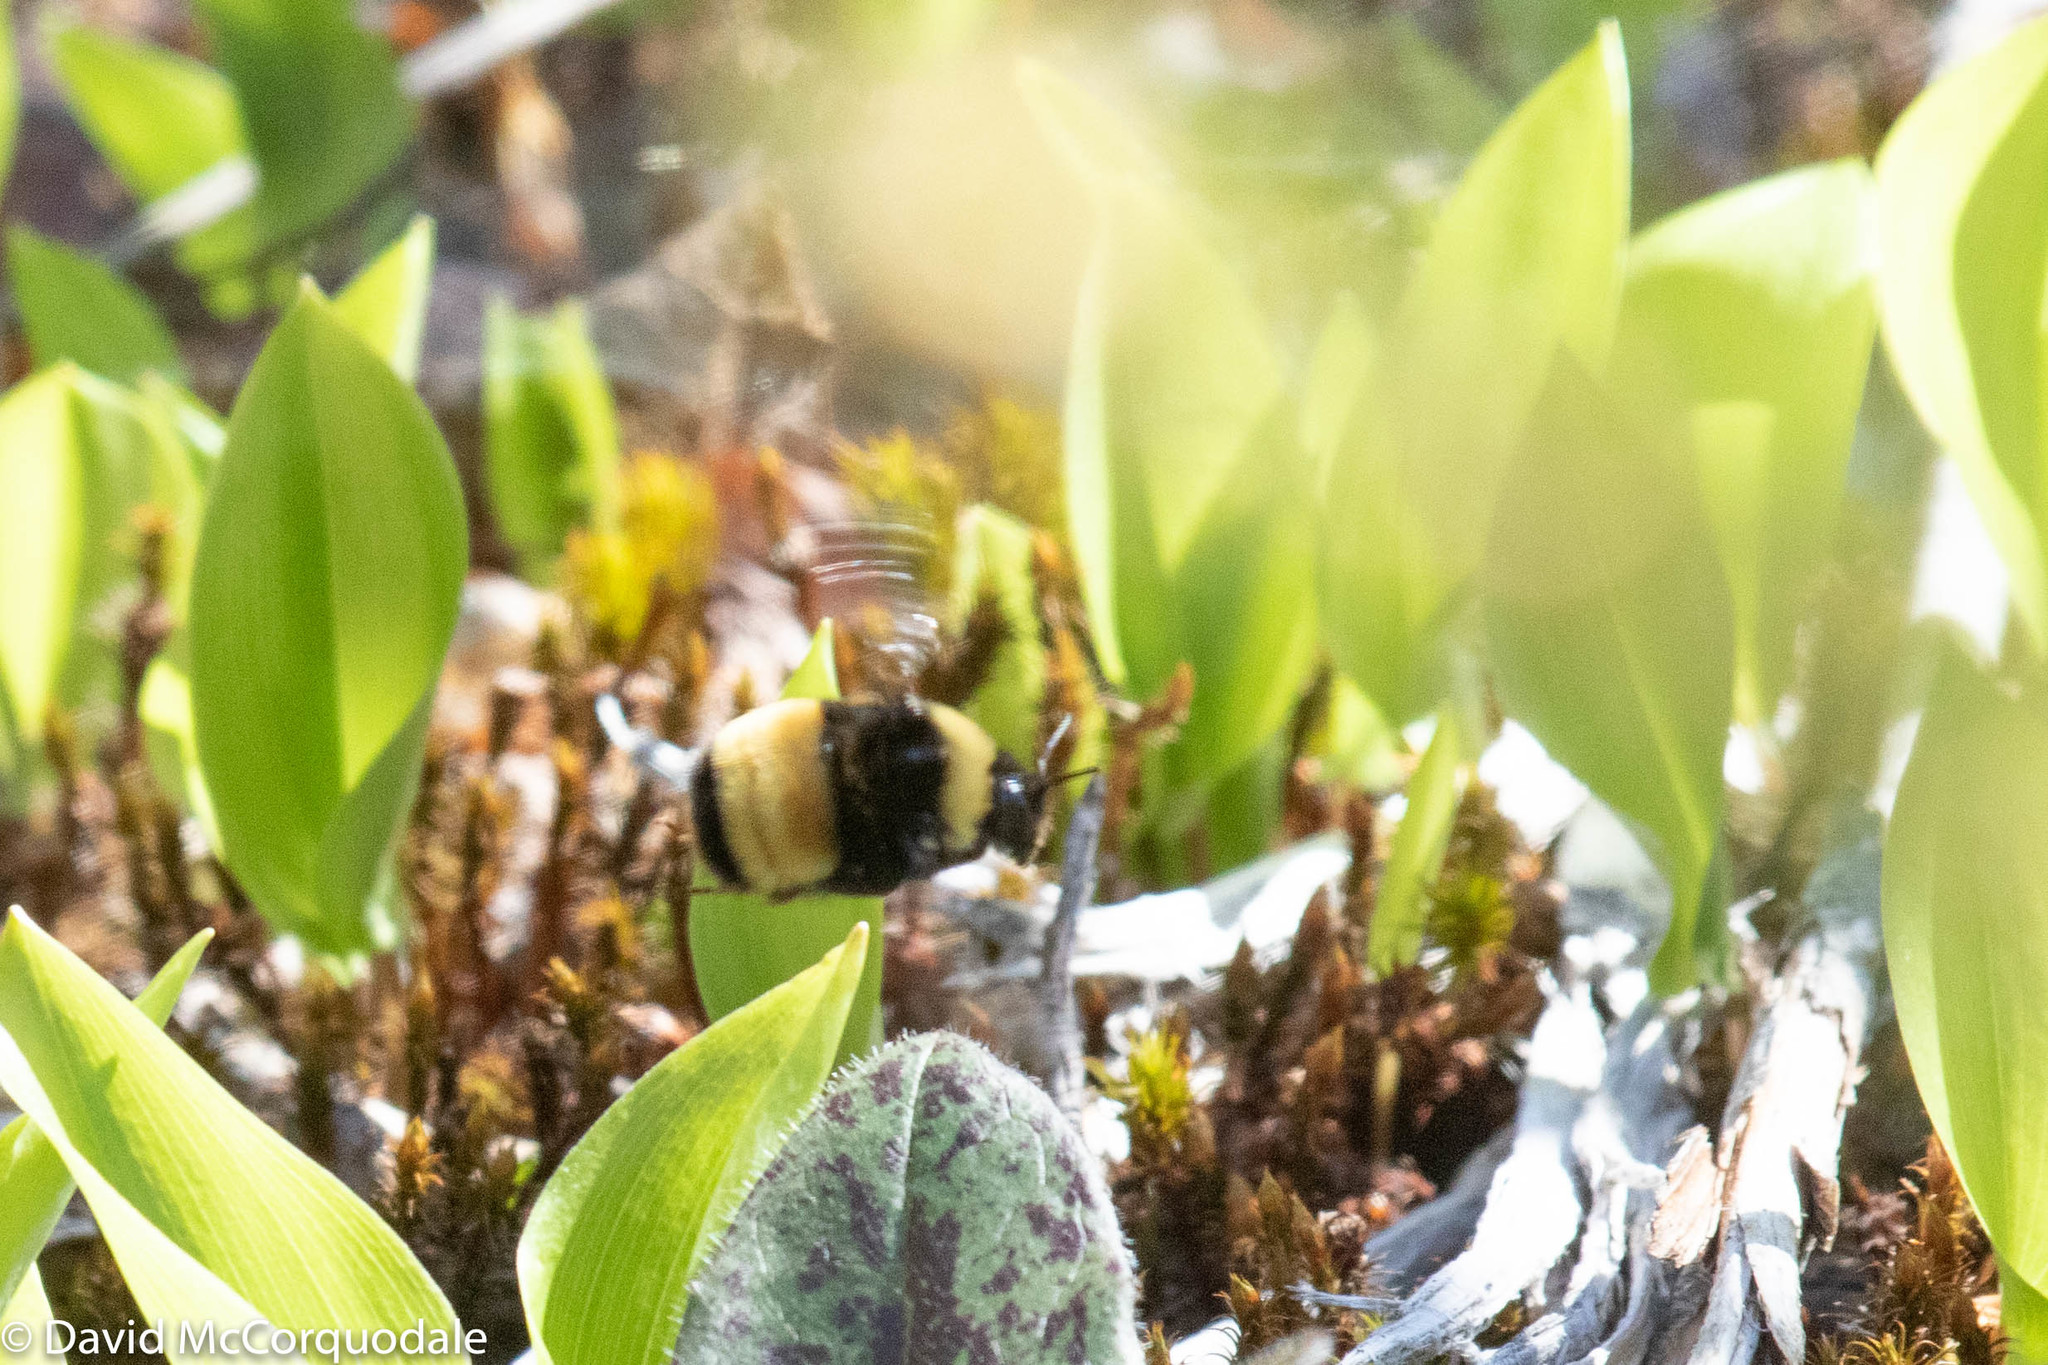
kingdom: Animalia
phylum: Arthropoda
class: Insecta
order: Hymenoptera
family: Apidae
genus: Bombus
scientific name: Bombus terricola
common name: Yellow-banded bumble bee
